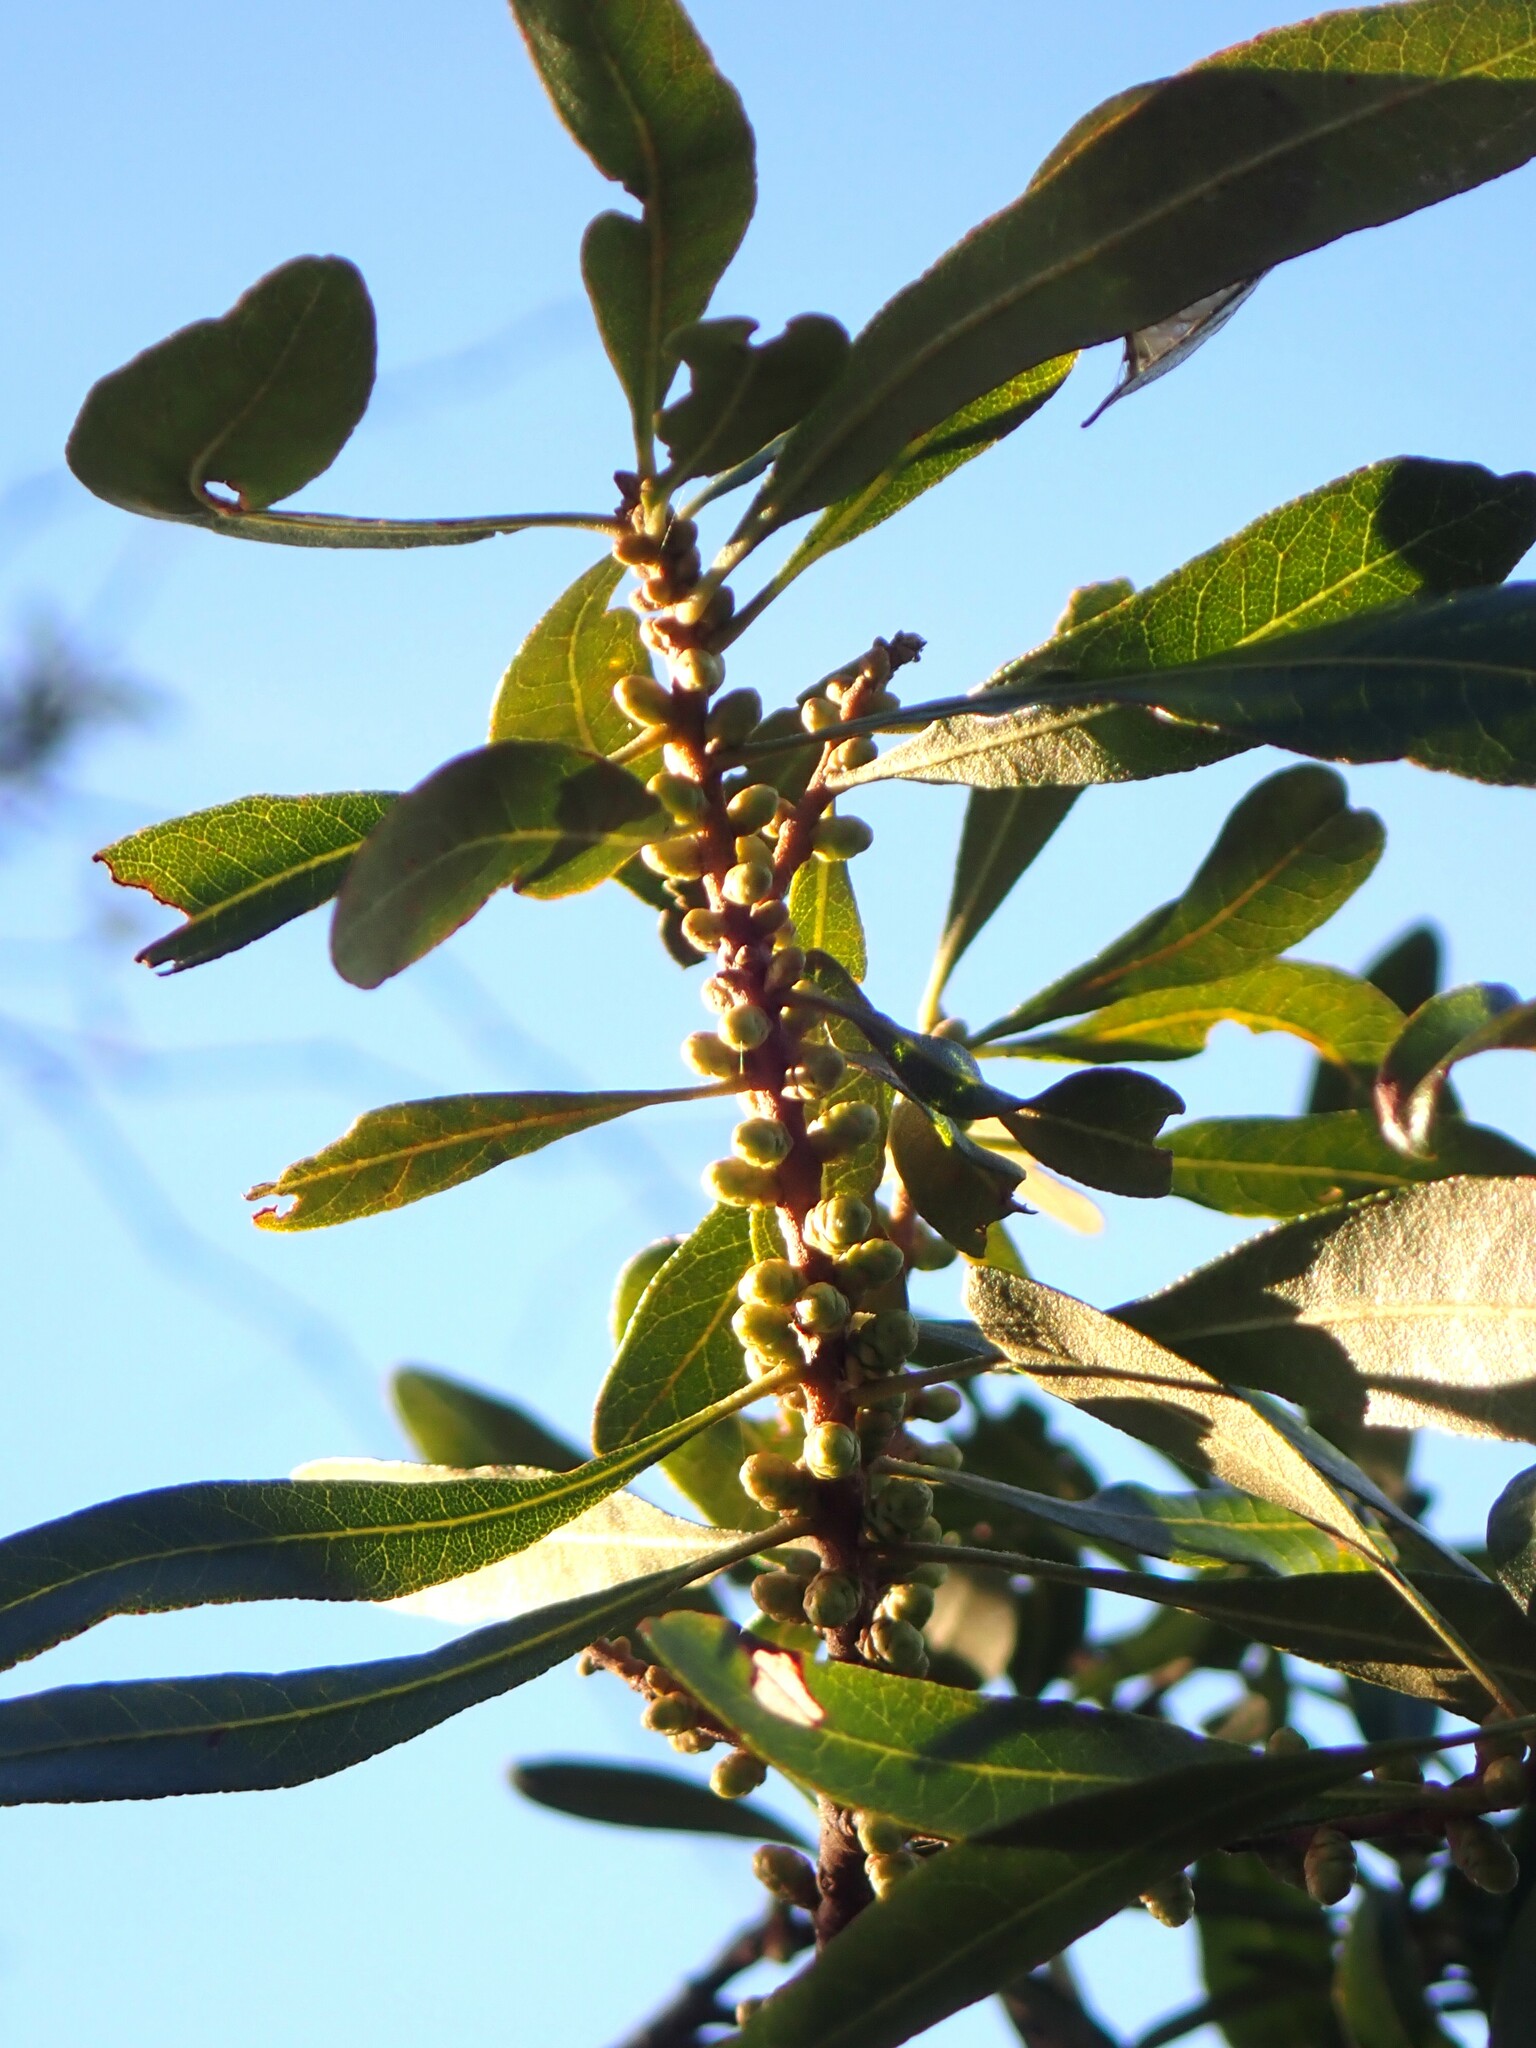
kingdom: Plantae
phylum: Tracheophyta
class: Magnoliopsida
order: Fagales
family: Myricaceae
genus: Morella
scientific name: Morella cerifera
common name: Wax myrtle
